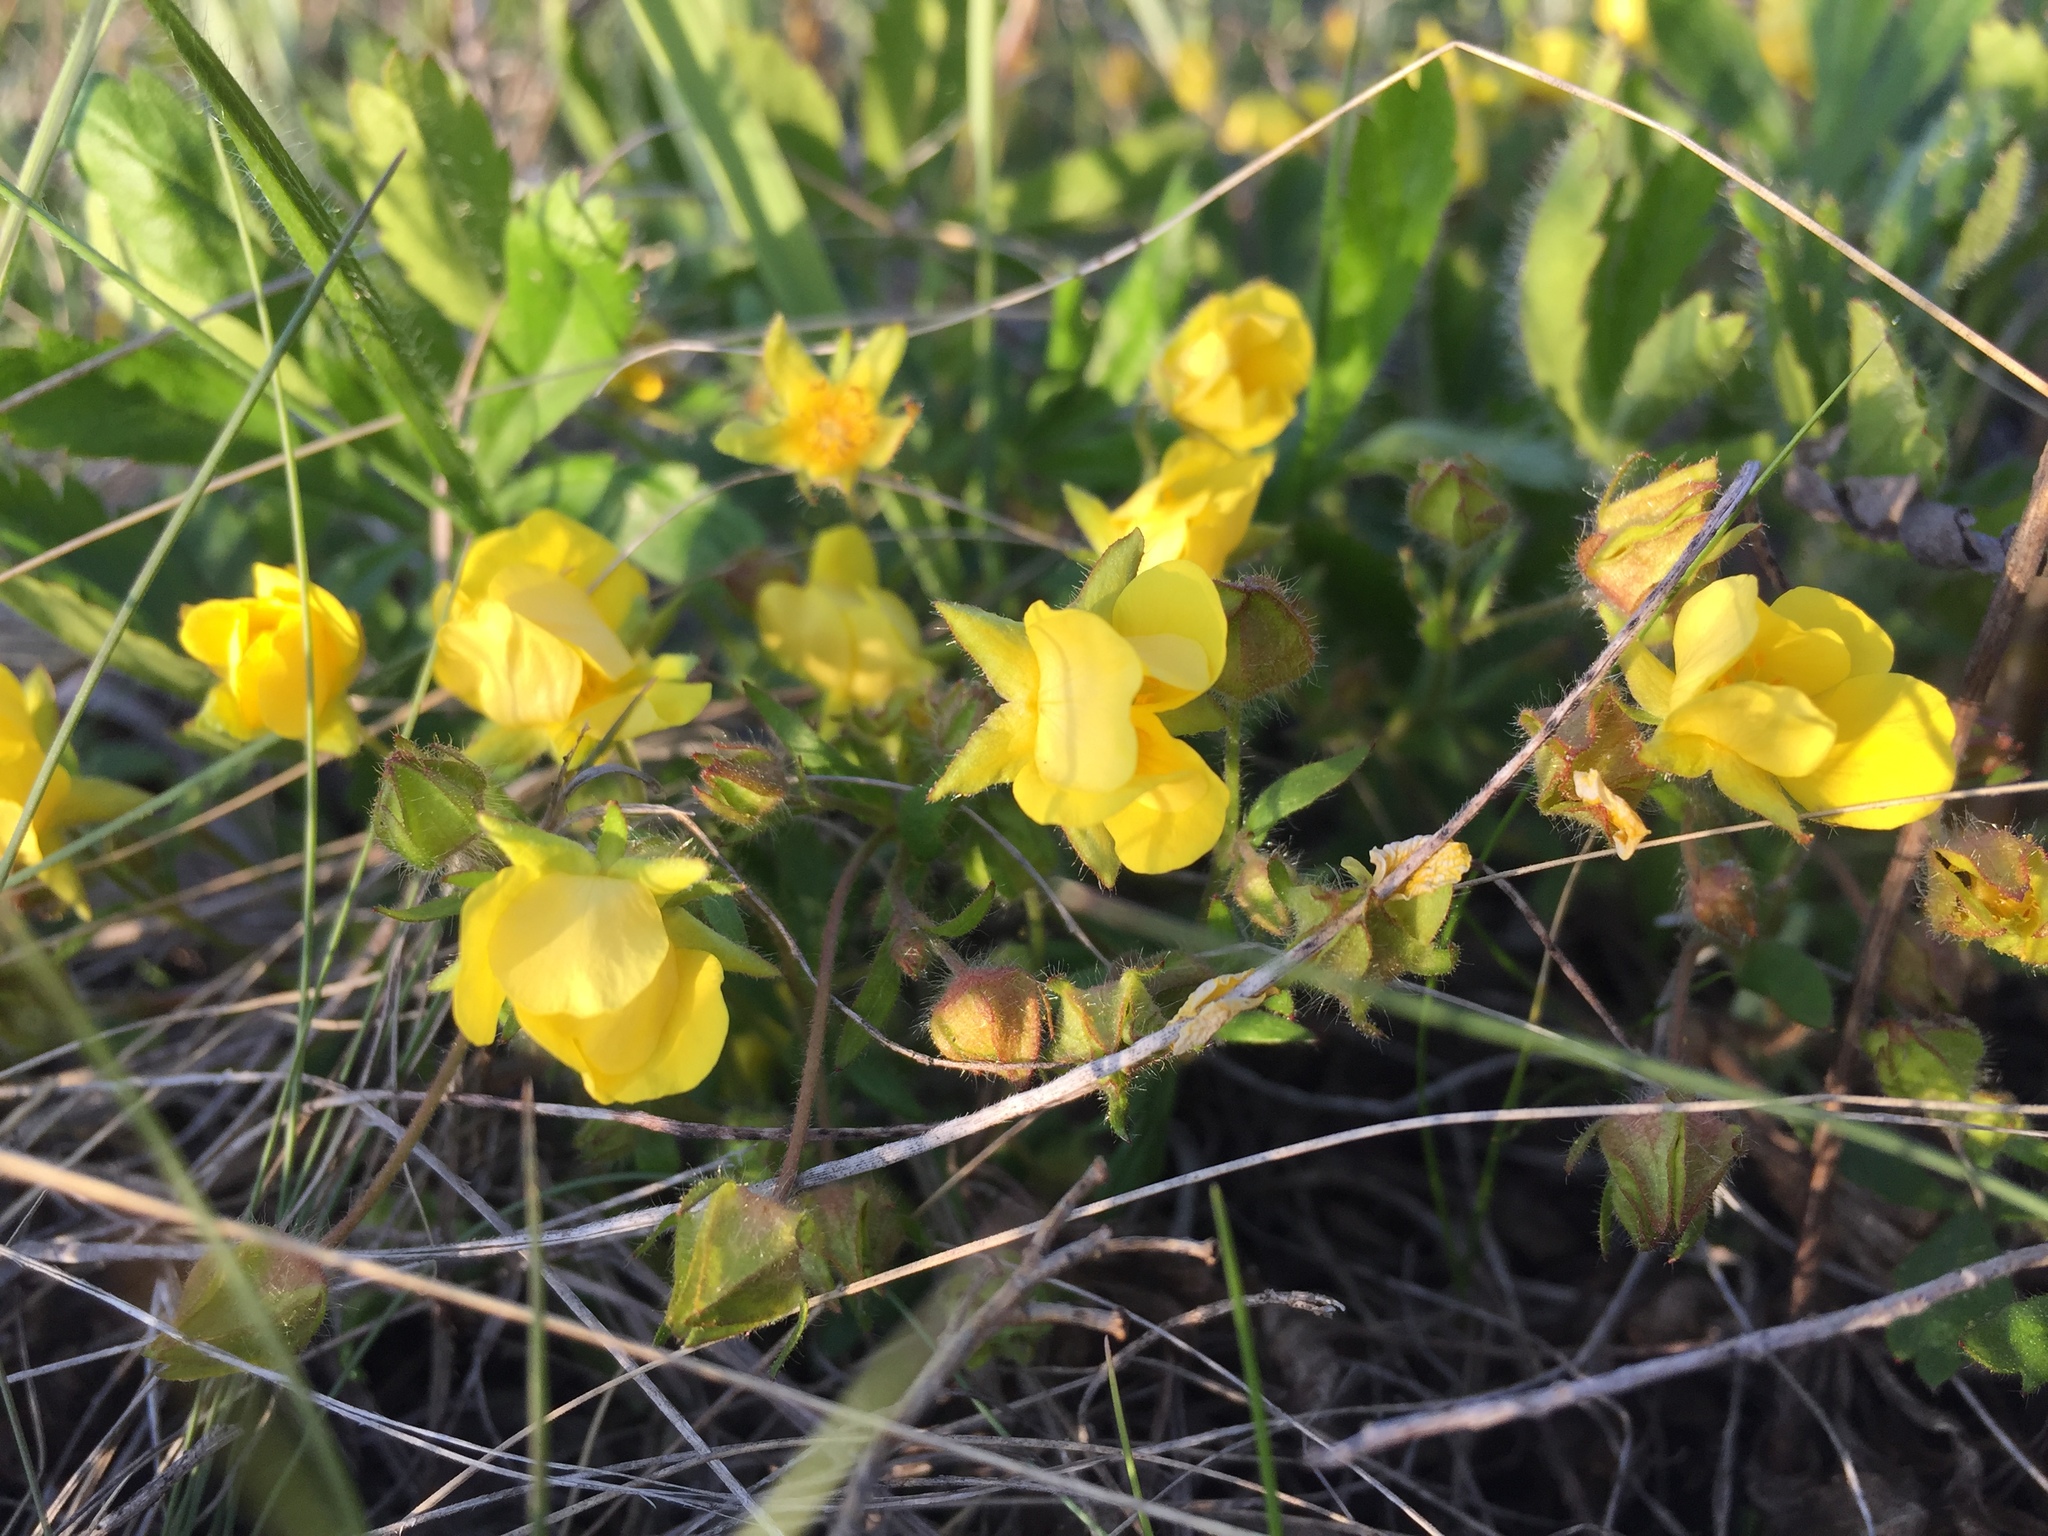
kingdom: Plantae
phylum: Tracheophyta
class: Magnoliopsida
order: Rosales
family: Rosaceae
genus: Potentilla
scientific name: Potentilla humifusa
